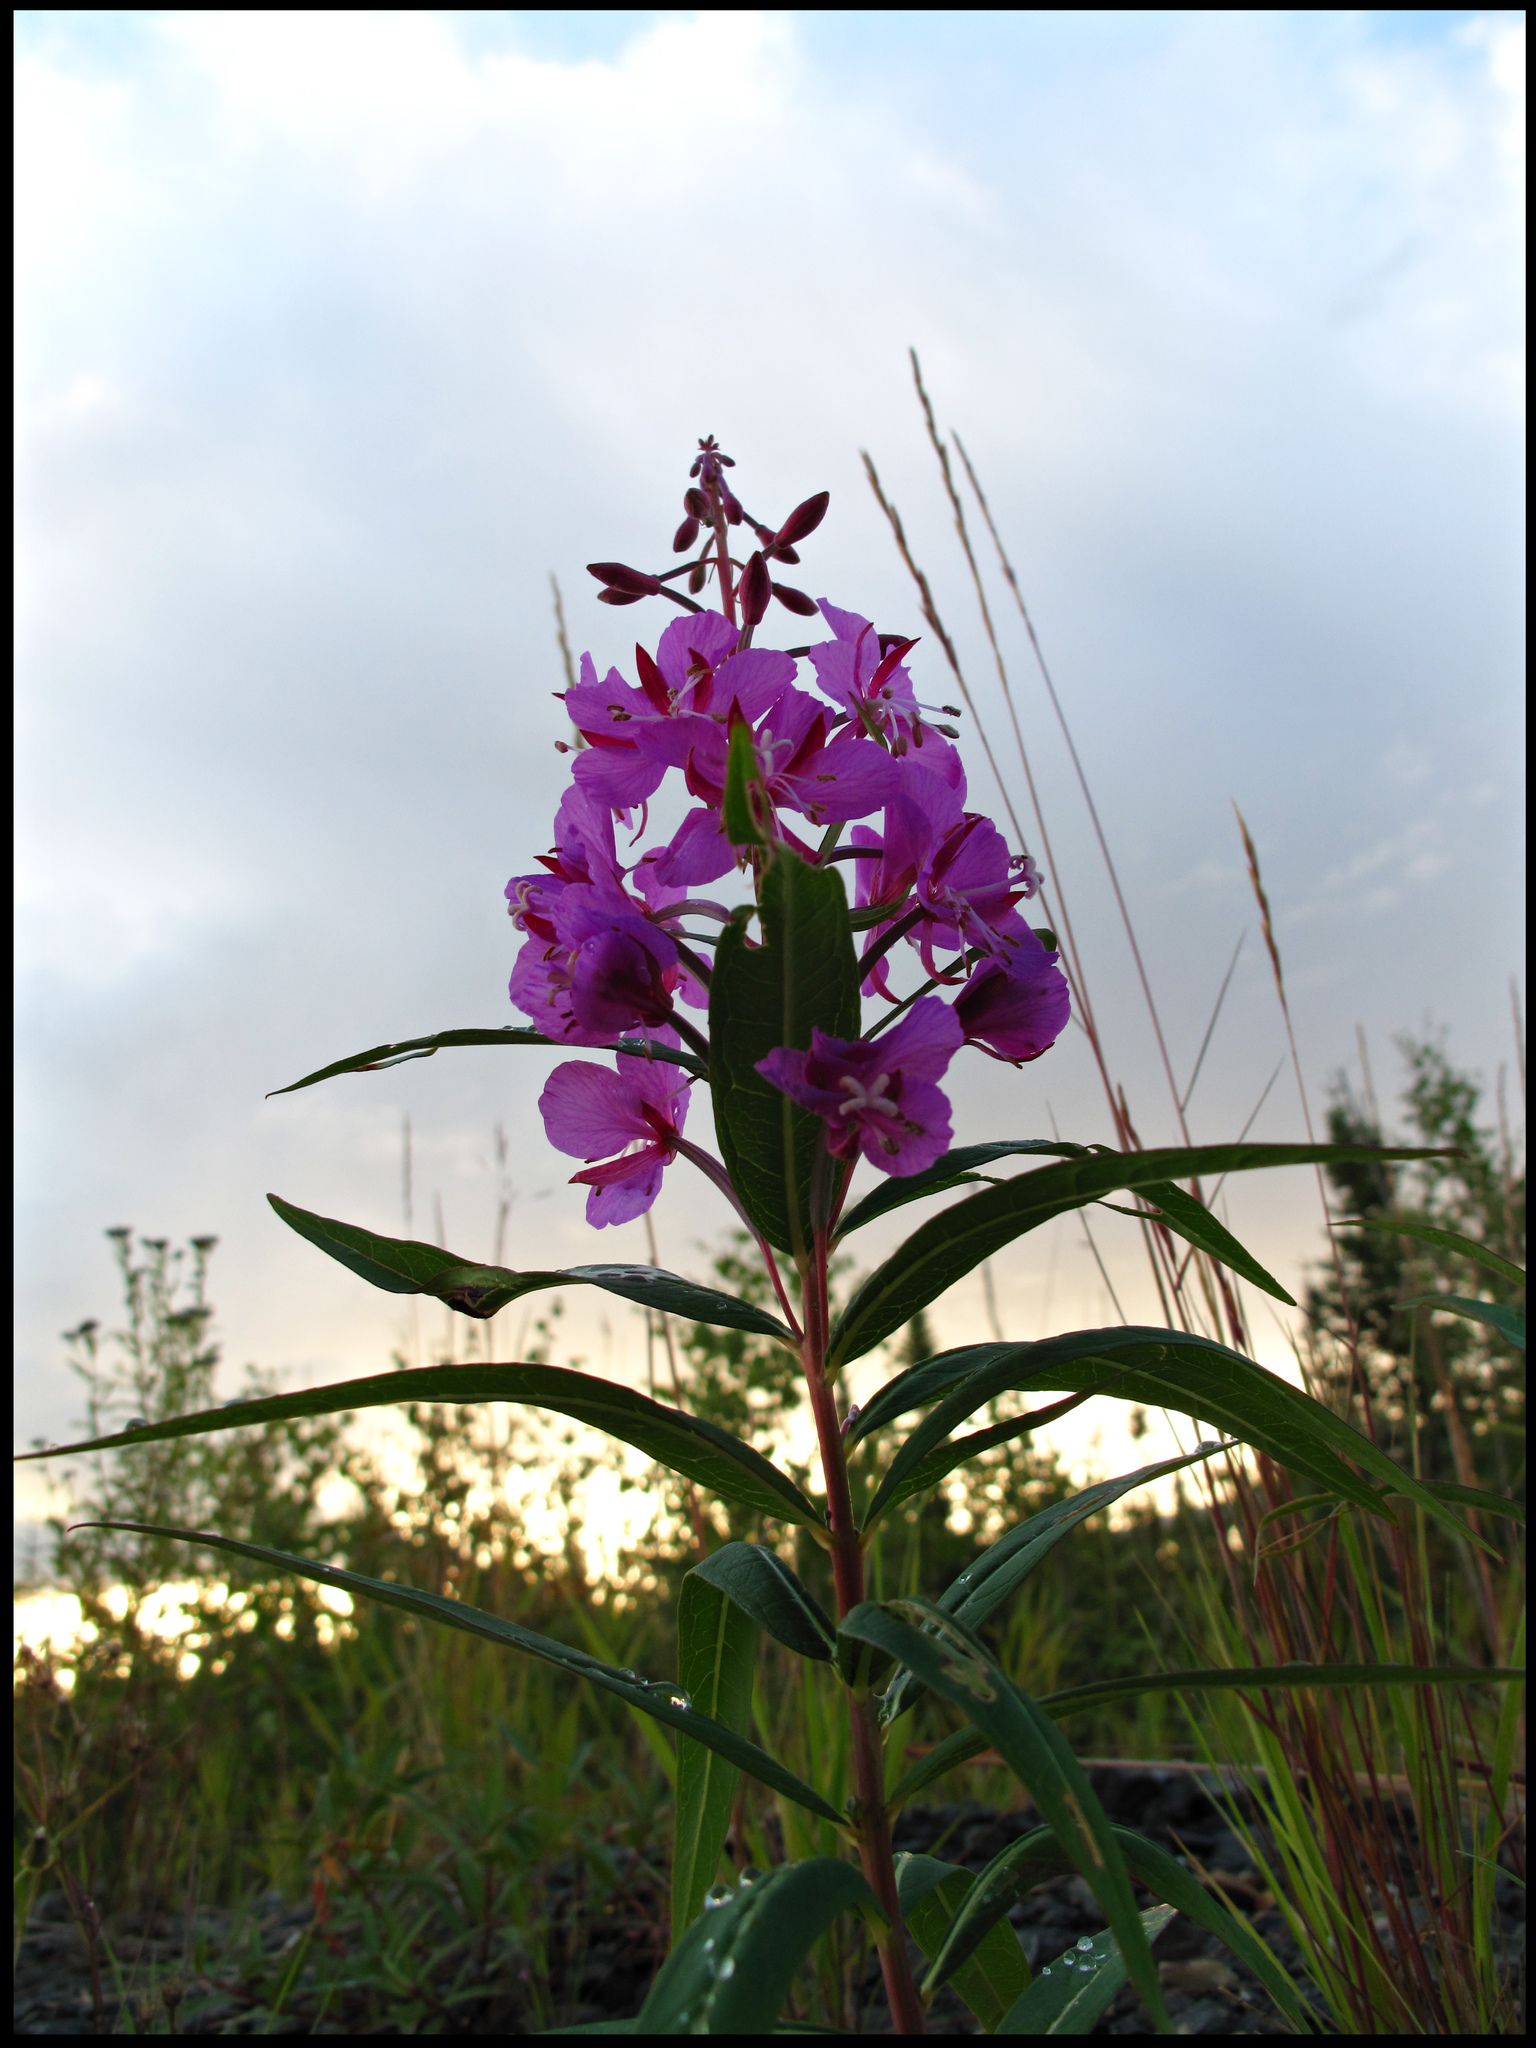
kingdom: Plantae
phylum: Tracheophyta
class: Magnoliopsida
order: Myrtales
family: Onagraceae
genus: Chamaenerion
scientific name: Chamaenerion angustifolium
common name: Fireweed
